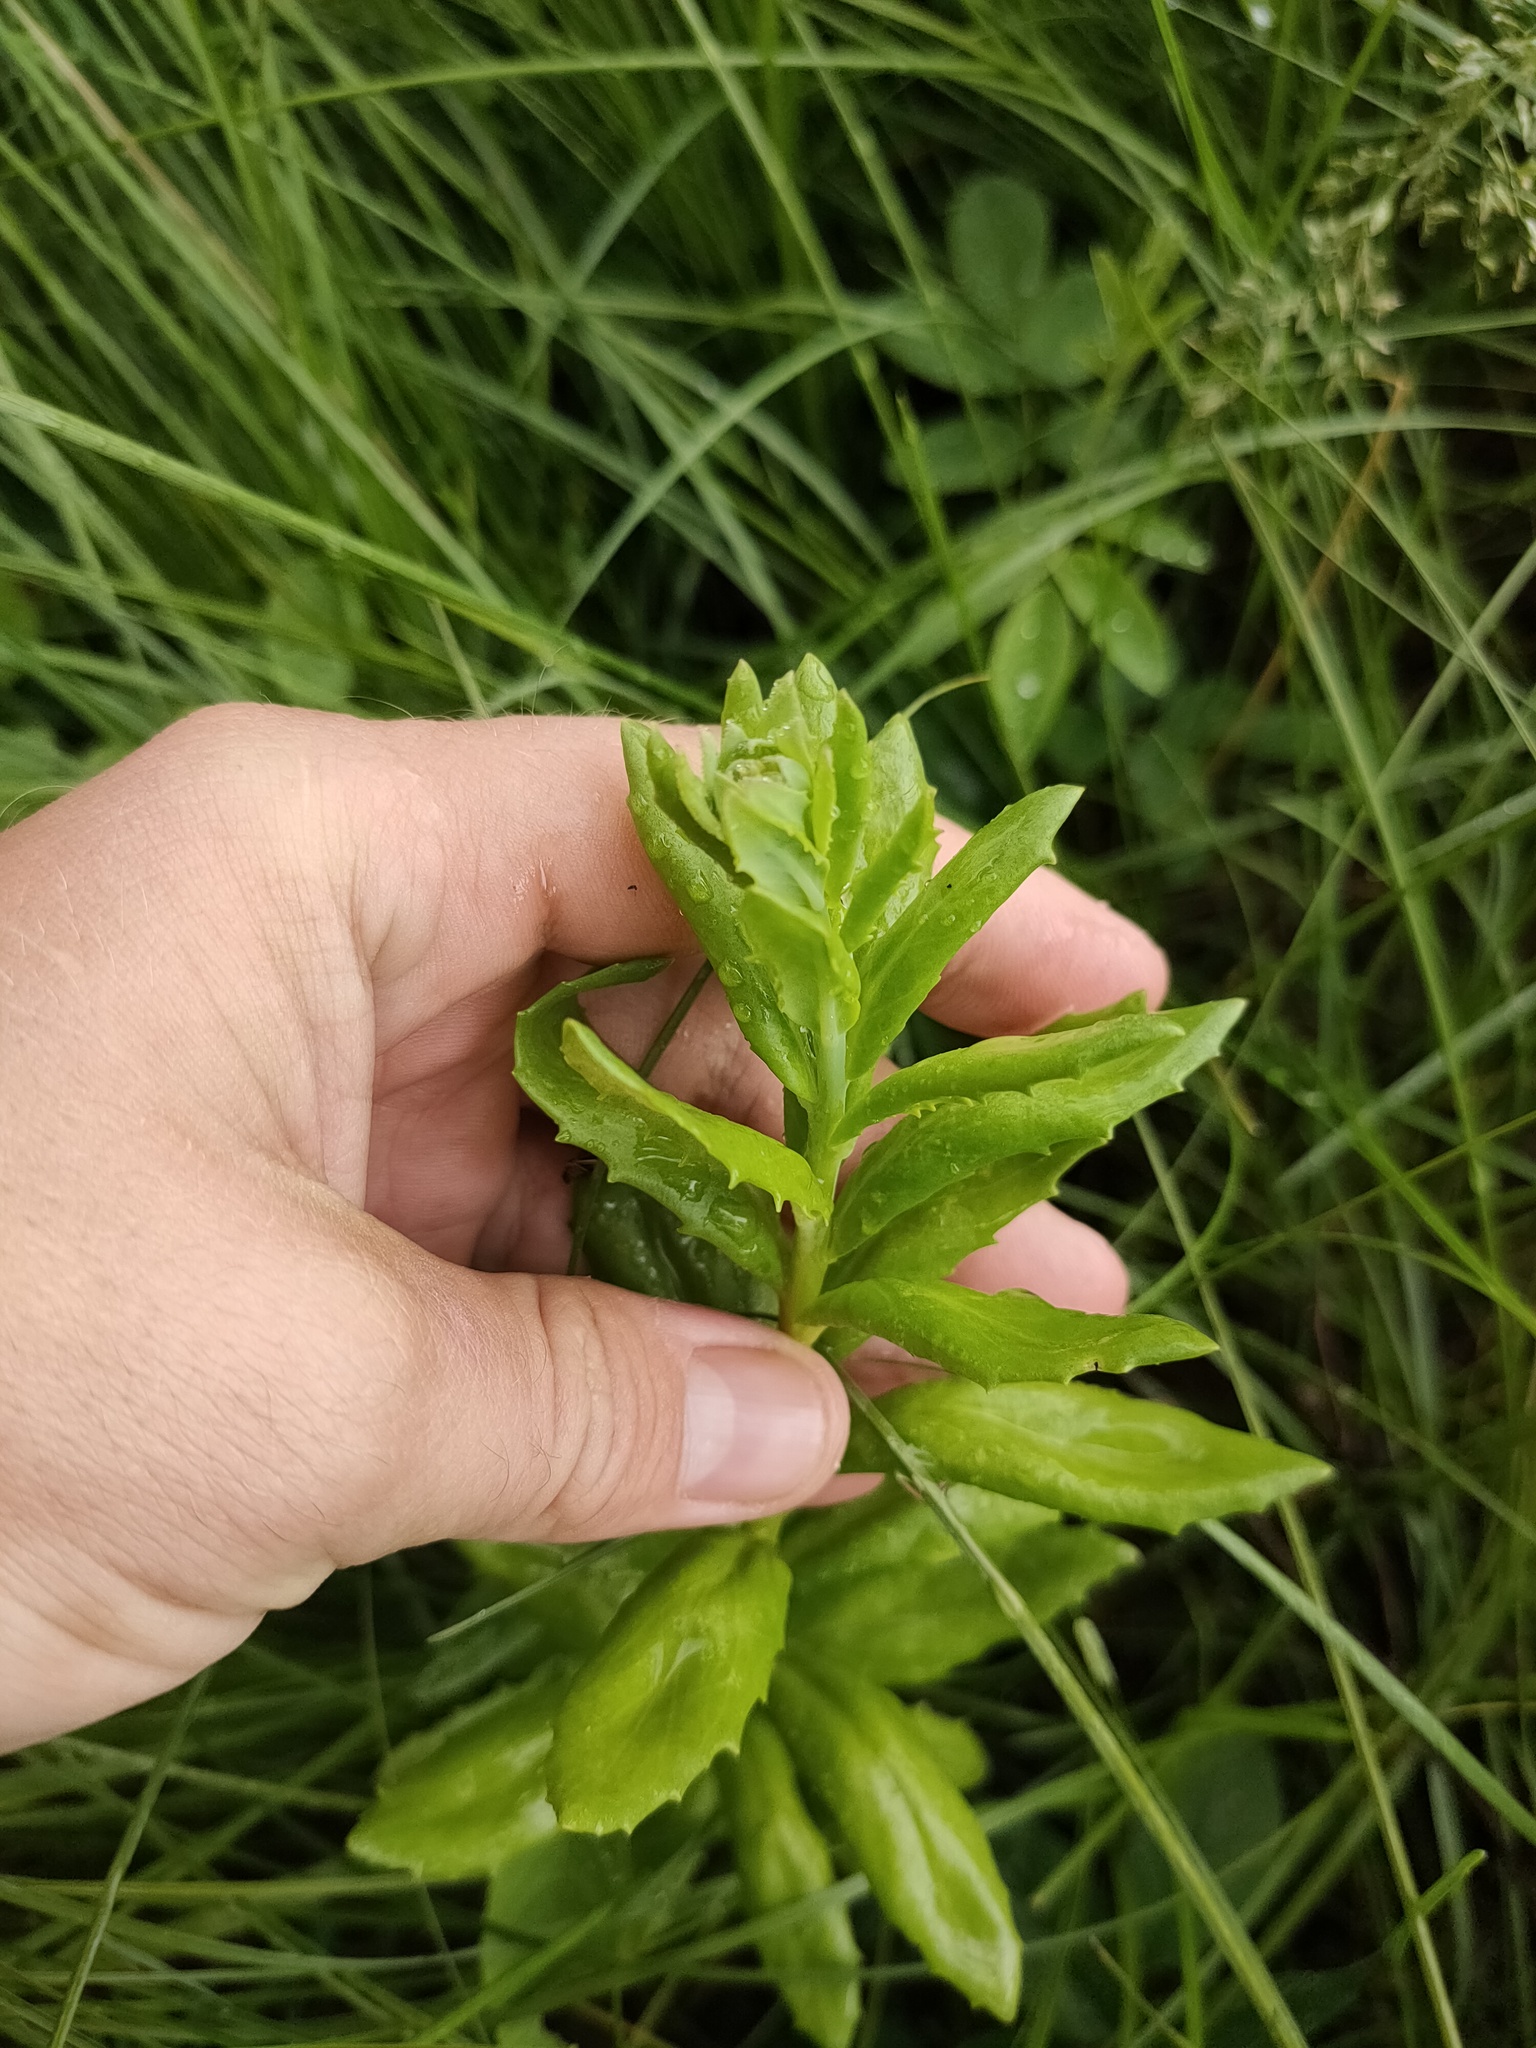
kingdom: Plantae
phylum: Tracheophyta
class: Magnoliopsida
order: Saxifragales
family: Crassulaceae
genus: Hylotelephium
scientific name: Hylotelephium telephium
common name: Live-forever
